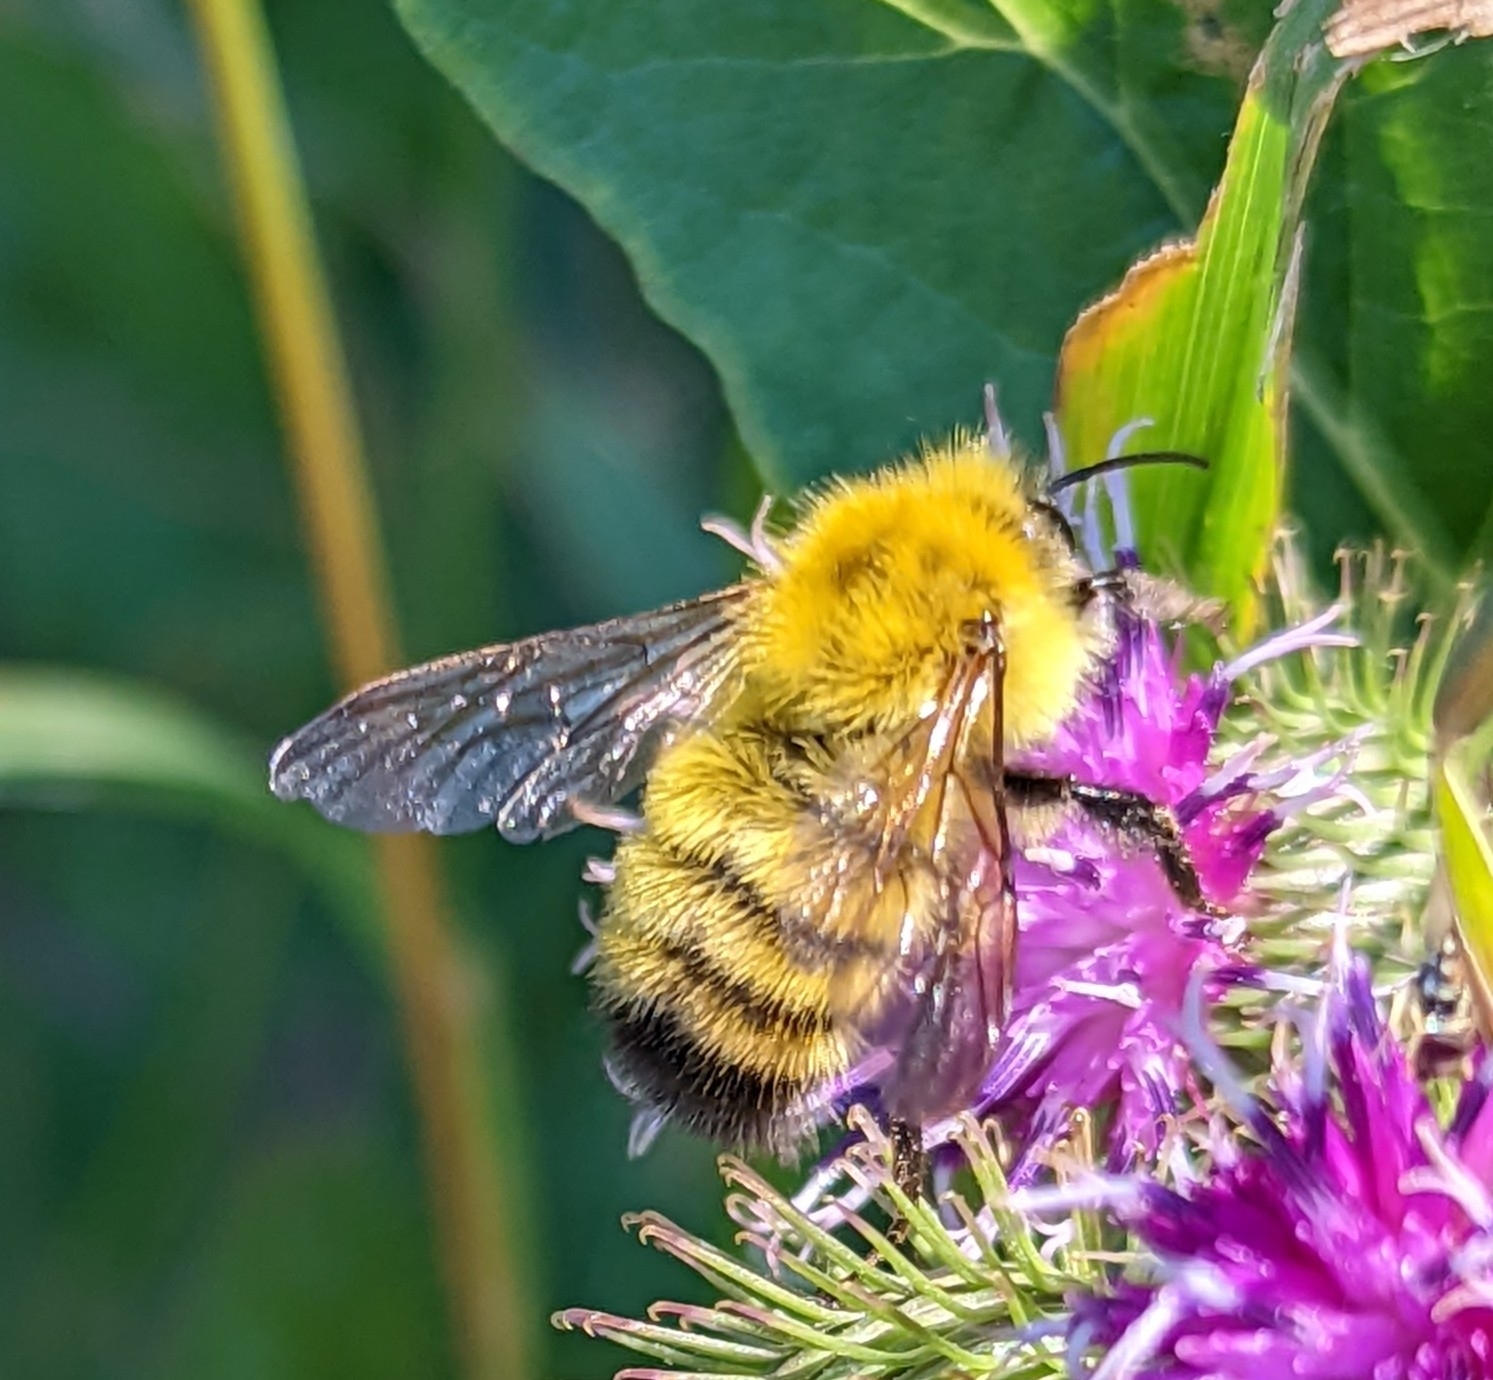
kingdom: Animalia
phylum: Arthropoda
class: Insecta
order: Hymenoptera
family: Apidae
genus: Bombus
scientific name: Bombus perplexus
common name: Confusing bumble bee
